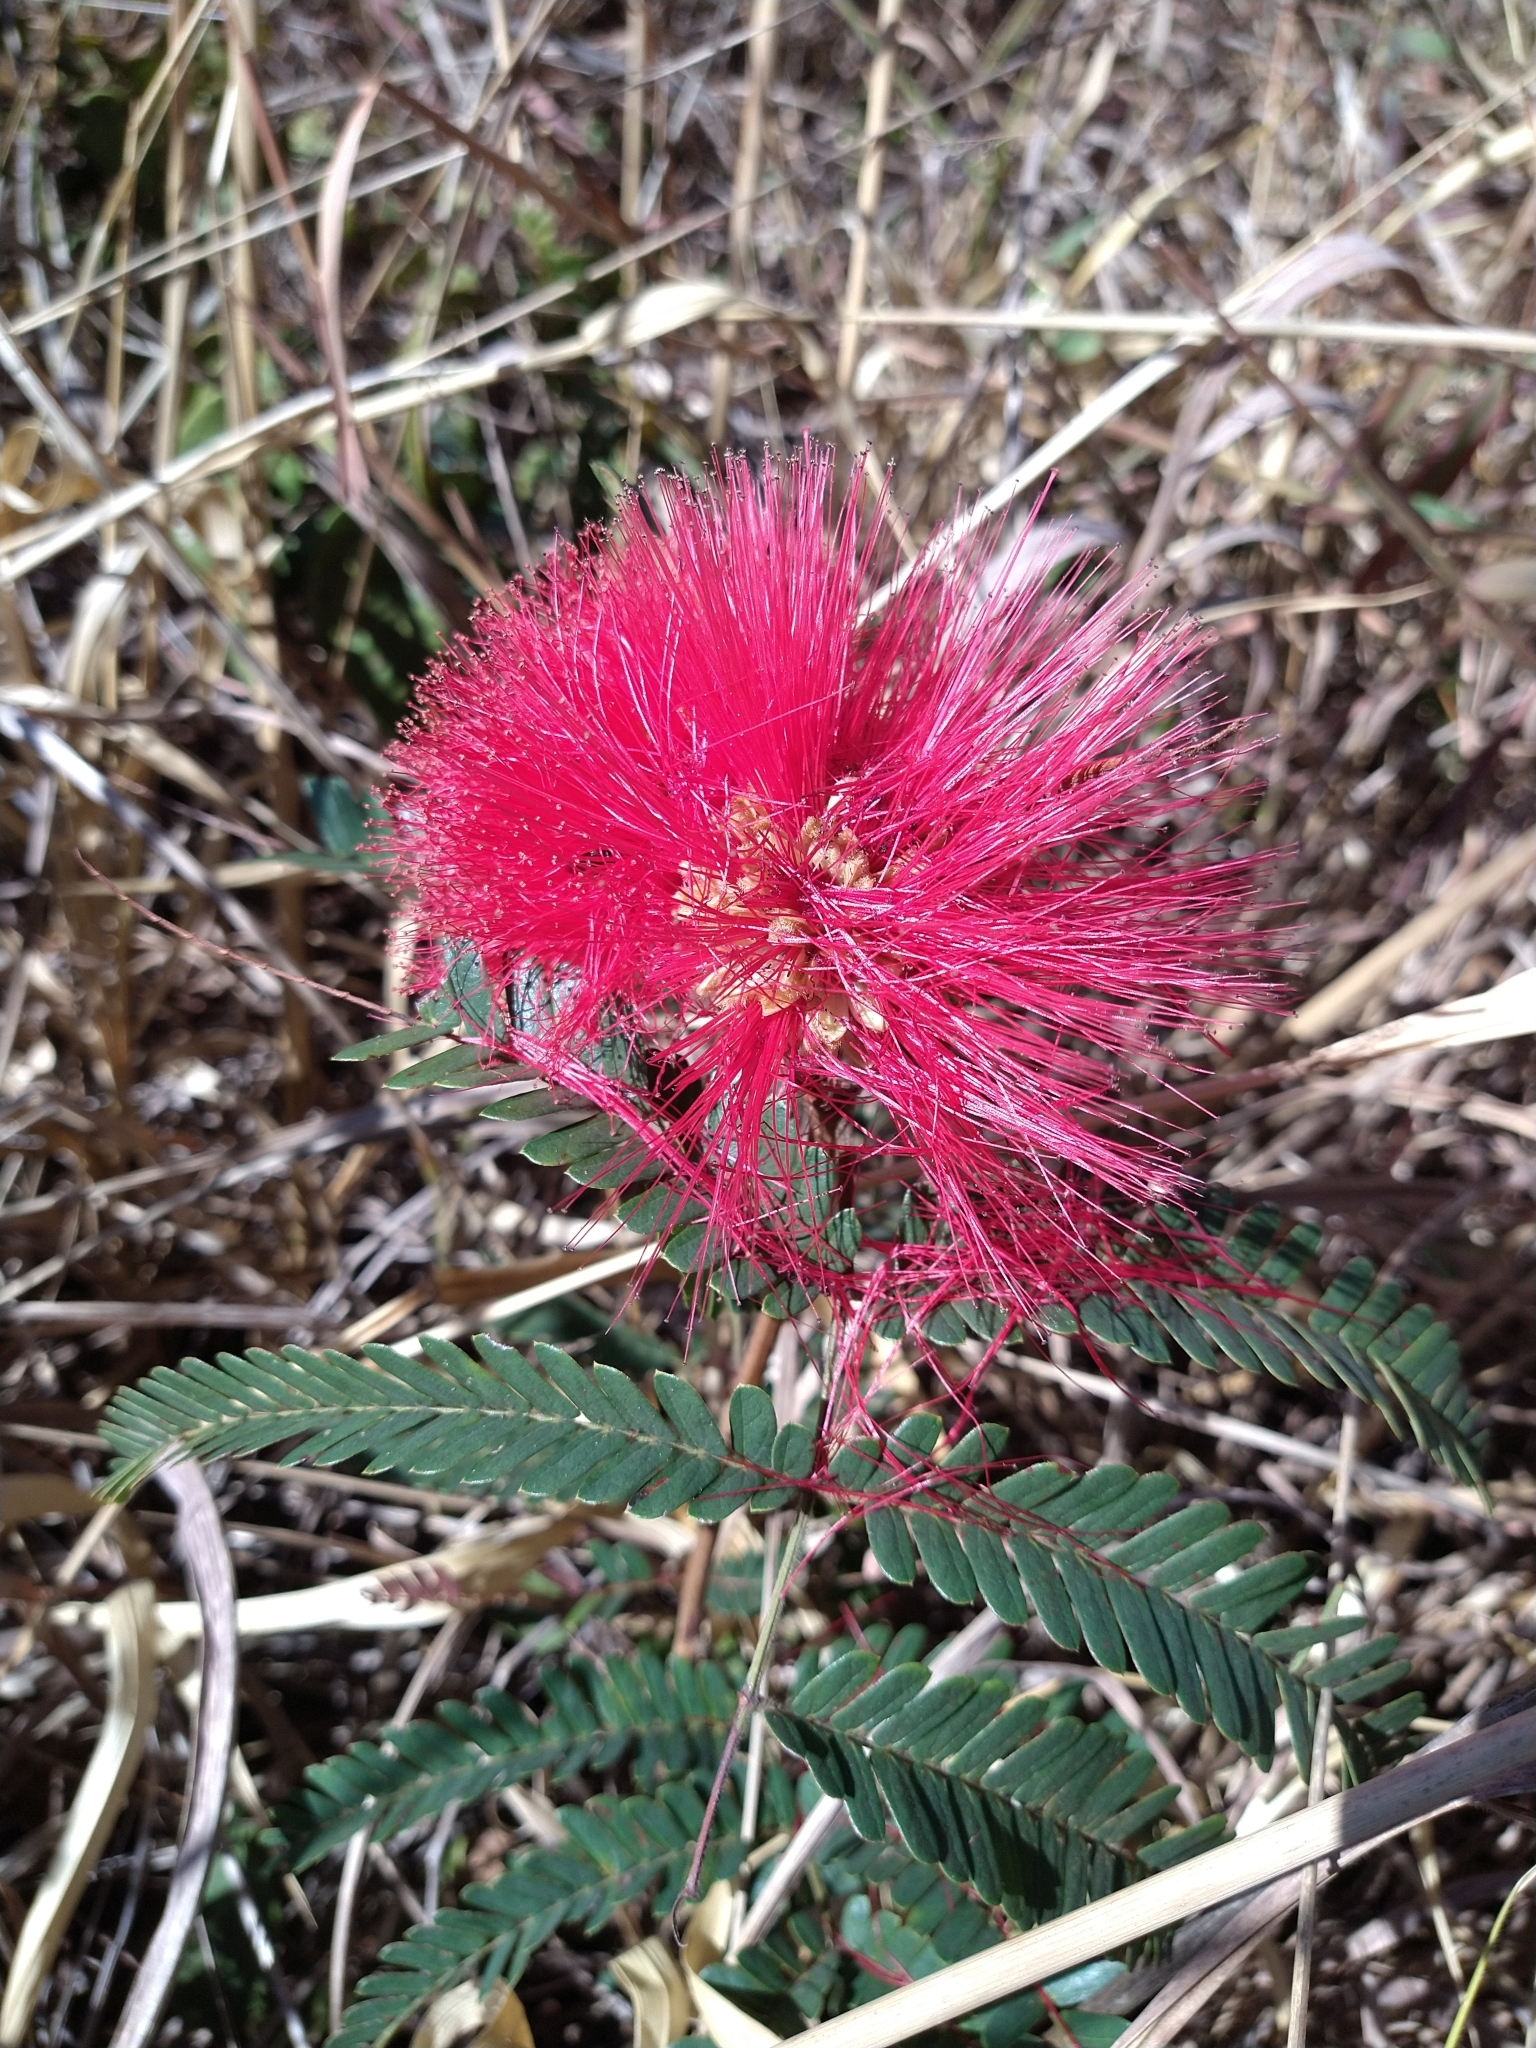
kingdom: Plantae
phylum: Tracheophyta
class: Magnoliopsida
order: Fabales
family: Fabaceae
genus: Calliandra
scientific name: Calliandra dysantha
